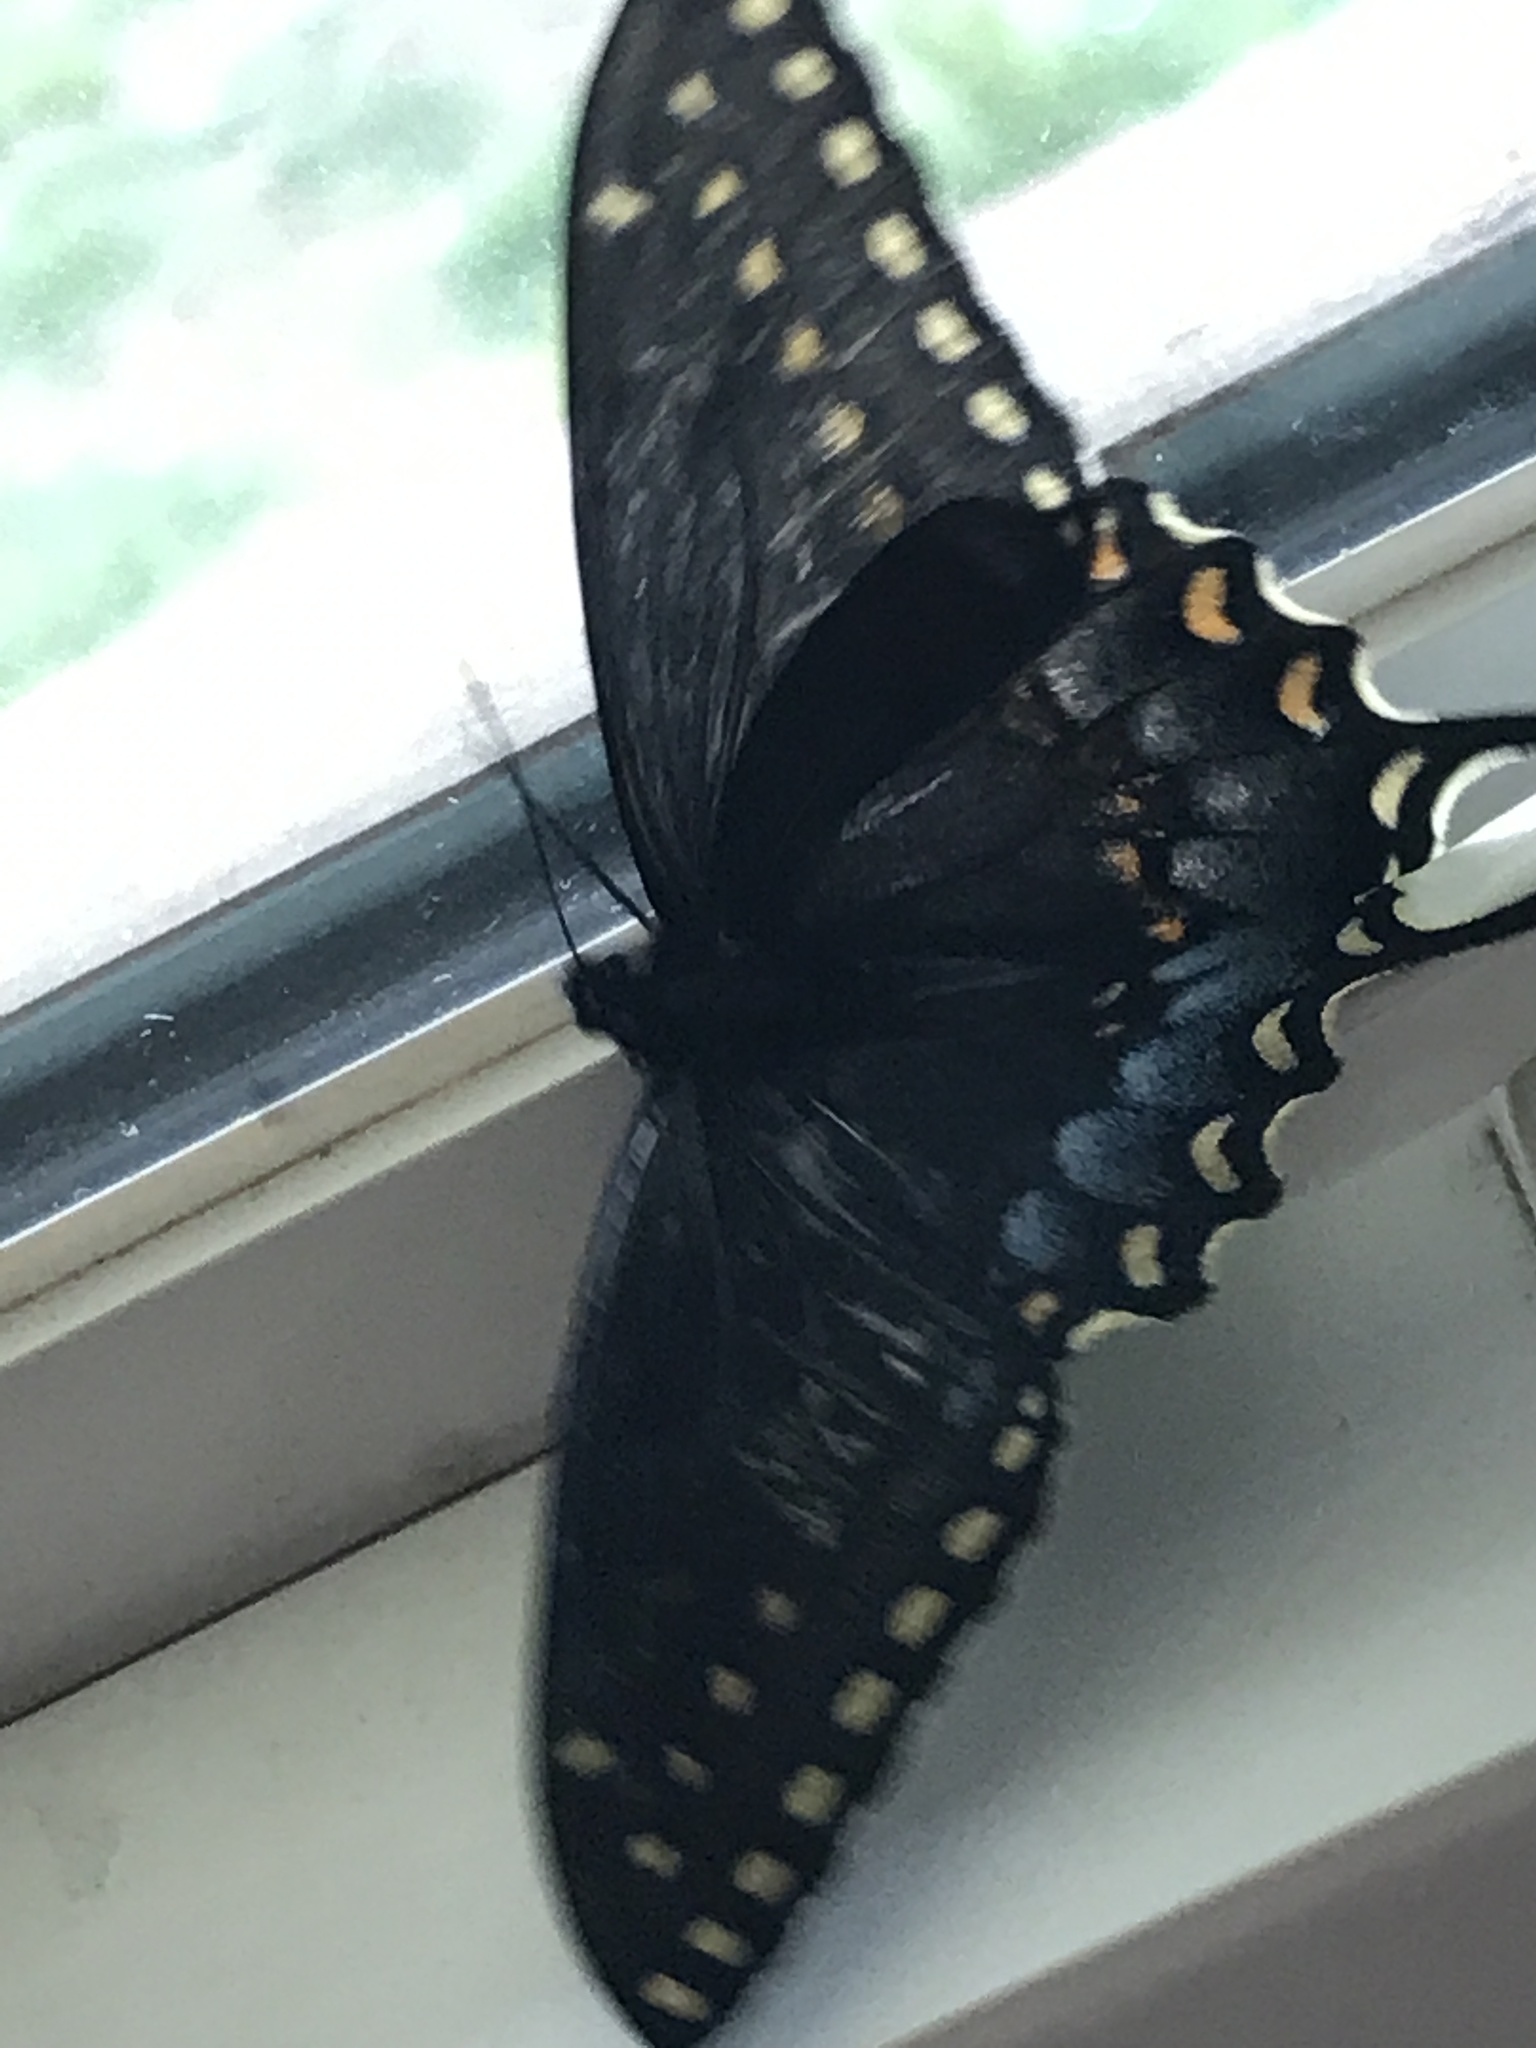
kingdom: Animalia
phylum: Arthropoda
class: Insecta
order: Lepidoptera
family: Papilionidae
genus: Papilio
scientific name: Papilio polyxenes
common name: Black swallowtail
